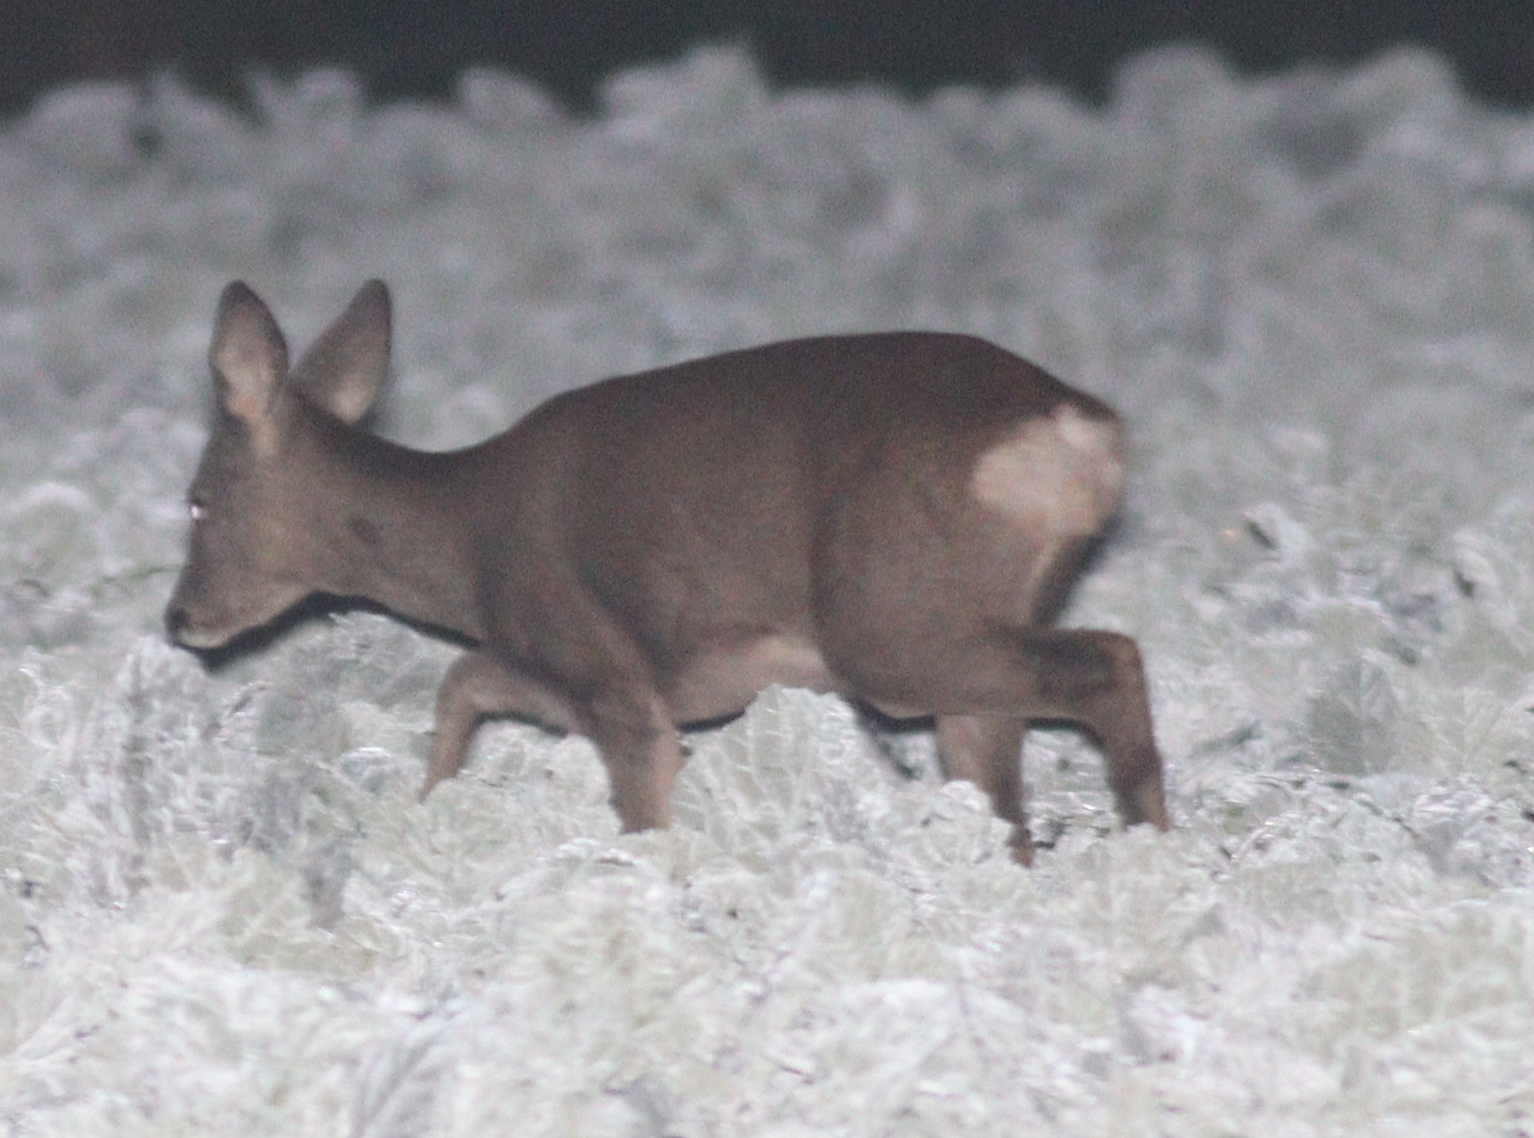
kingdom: Animalia
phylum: Chordata
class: Mammalia
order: Artiodactyla
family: Cervidae
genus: Capreolus
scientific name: Capreolus capreolus
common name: Western roe deer
